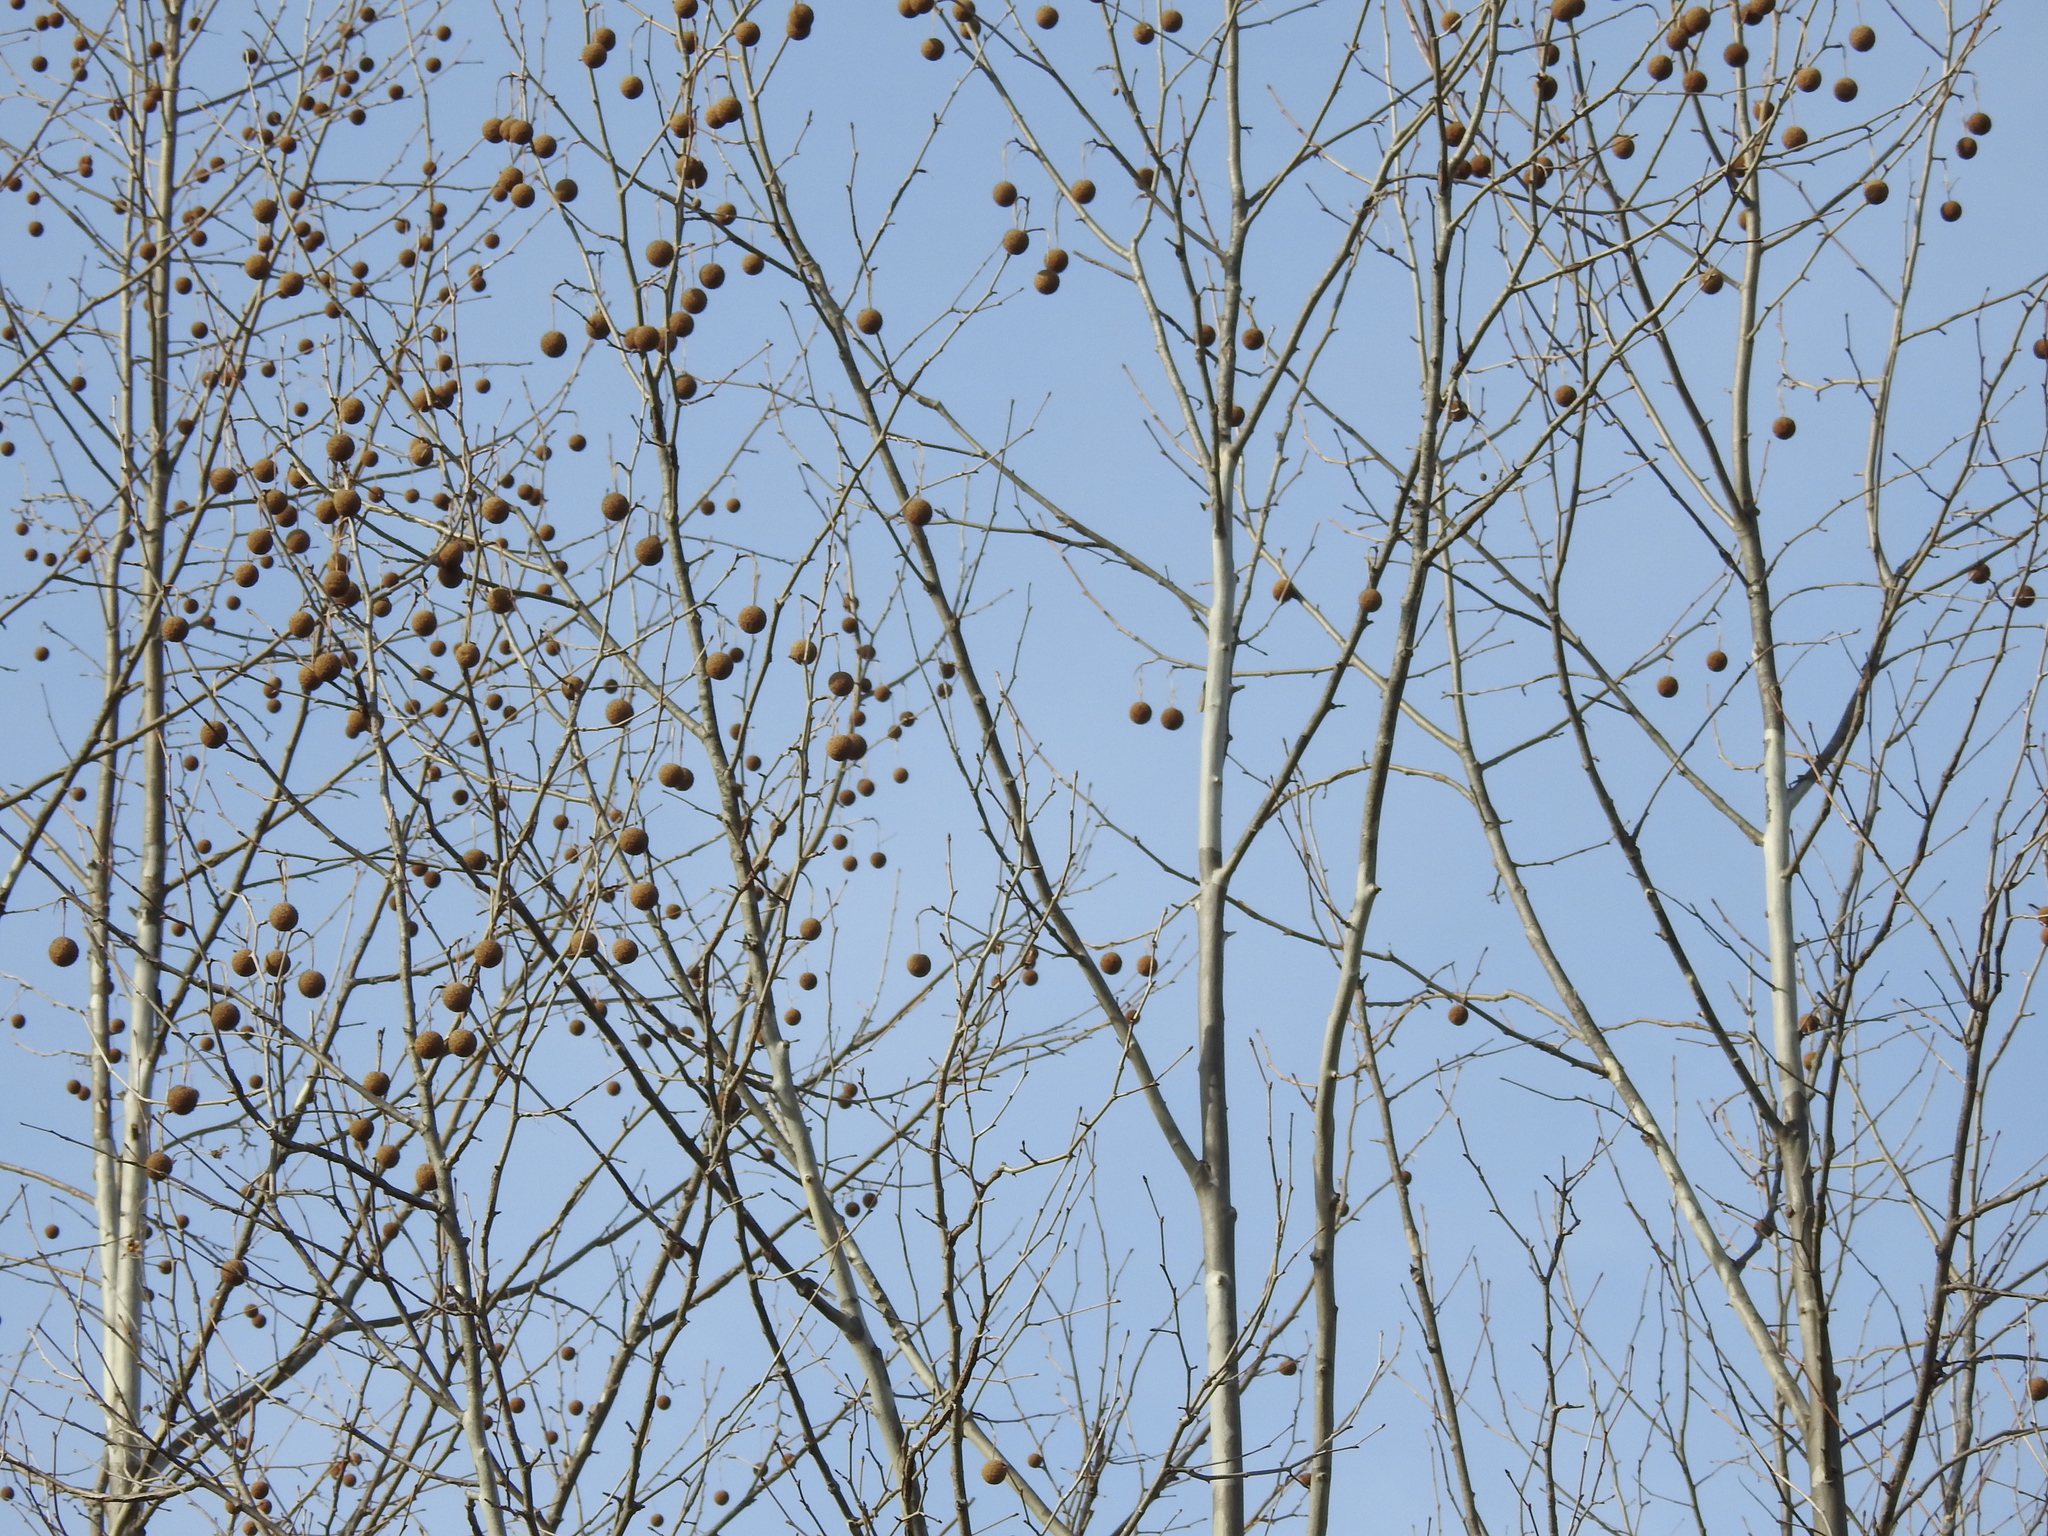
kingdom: Plantae
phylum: Tracheophyta
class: Magnoliopsida
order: Proteales
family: Platanaceae
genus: Platanus
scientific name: Platanus occidentalis
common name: American sycamore
